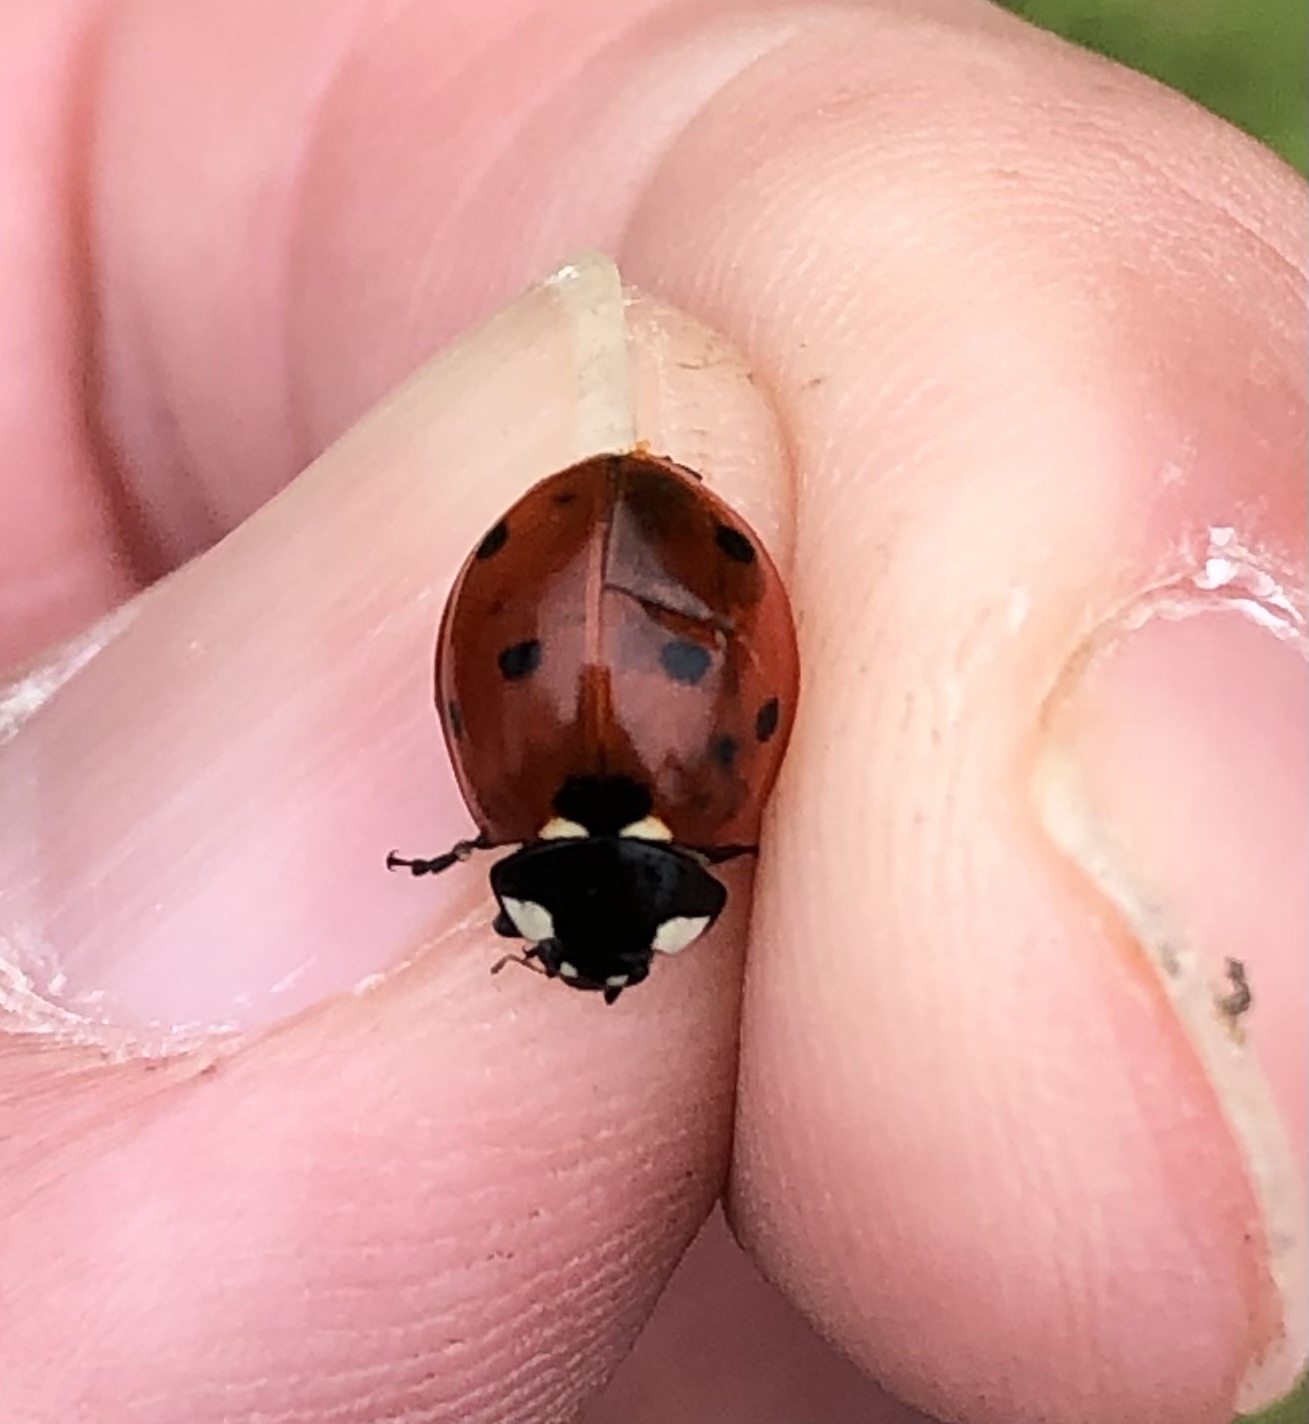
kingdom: Animalia
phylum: Arthropoda
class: Insecta
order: Coleoptera
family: Coccinellidae
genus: Coccinella
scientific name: Coccinella septempunctata
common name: Sevenspotted lady beetle
